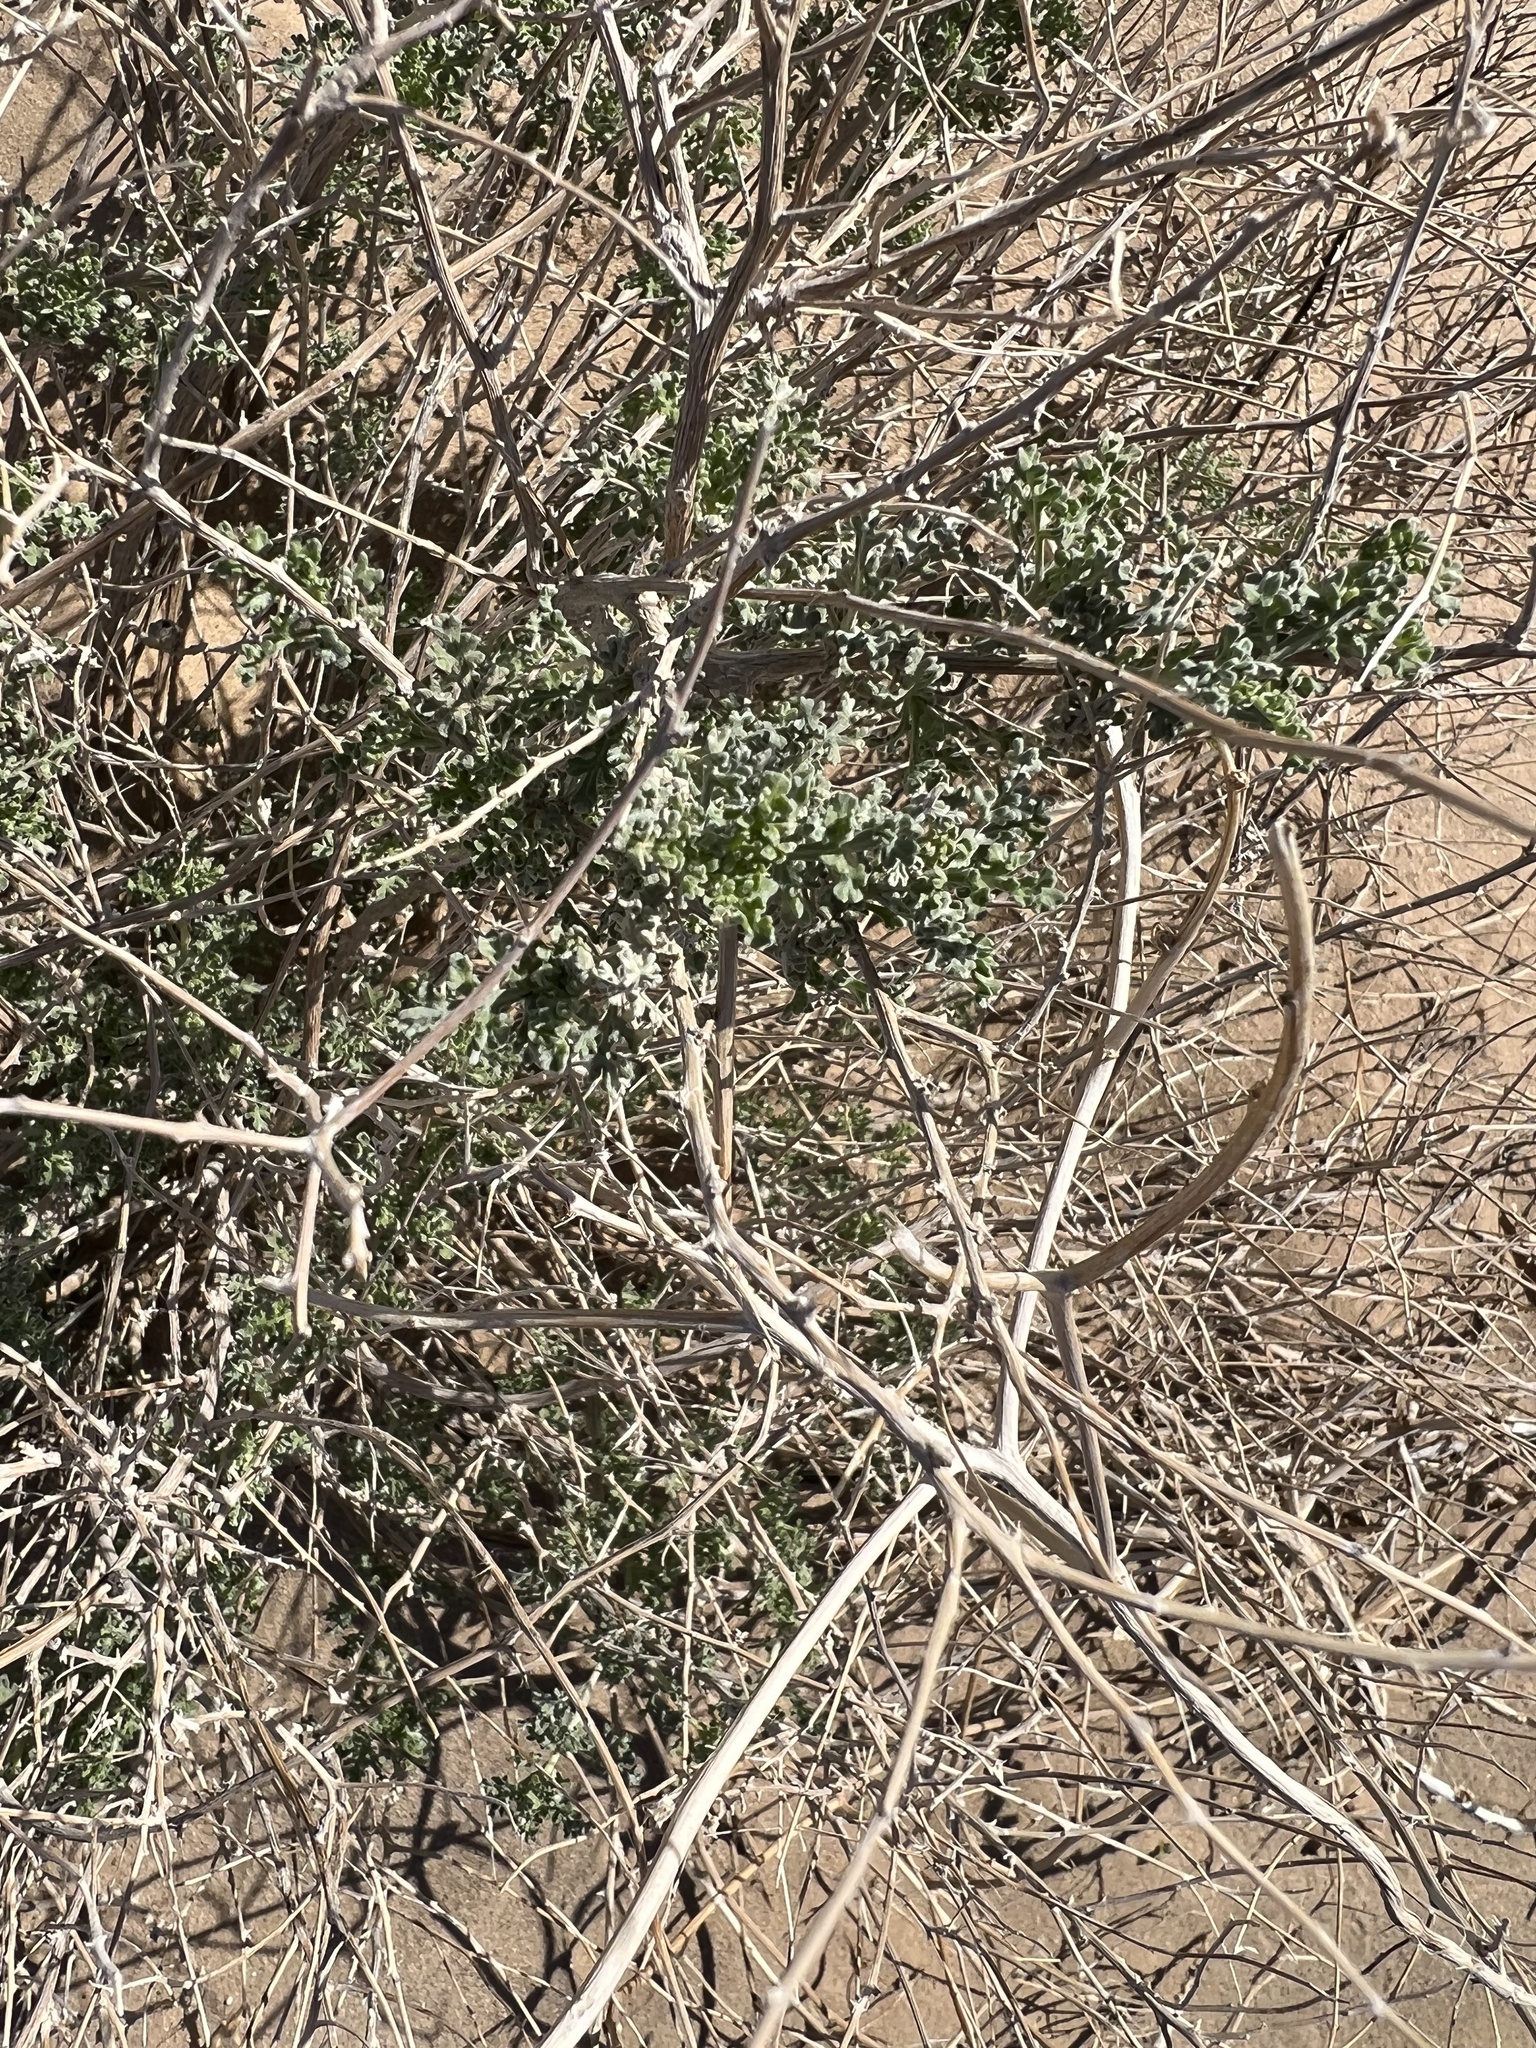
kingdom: Plantae
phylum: Tracheophyta
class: Magnoliopsida
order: Asterales
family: Asteraceae
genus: Ambrosia
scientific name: Ambrosia dumosa
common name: Bur-sage
